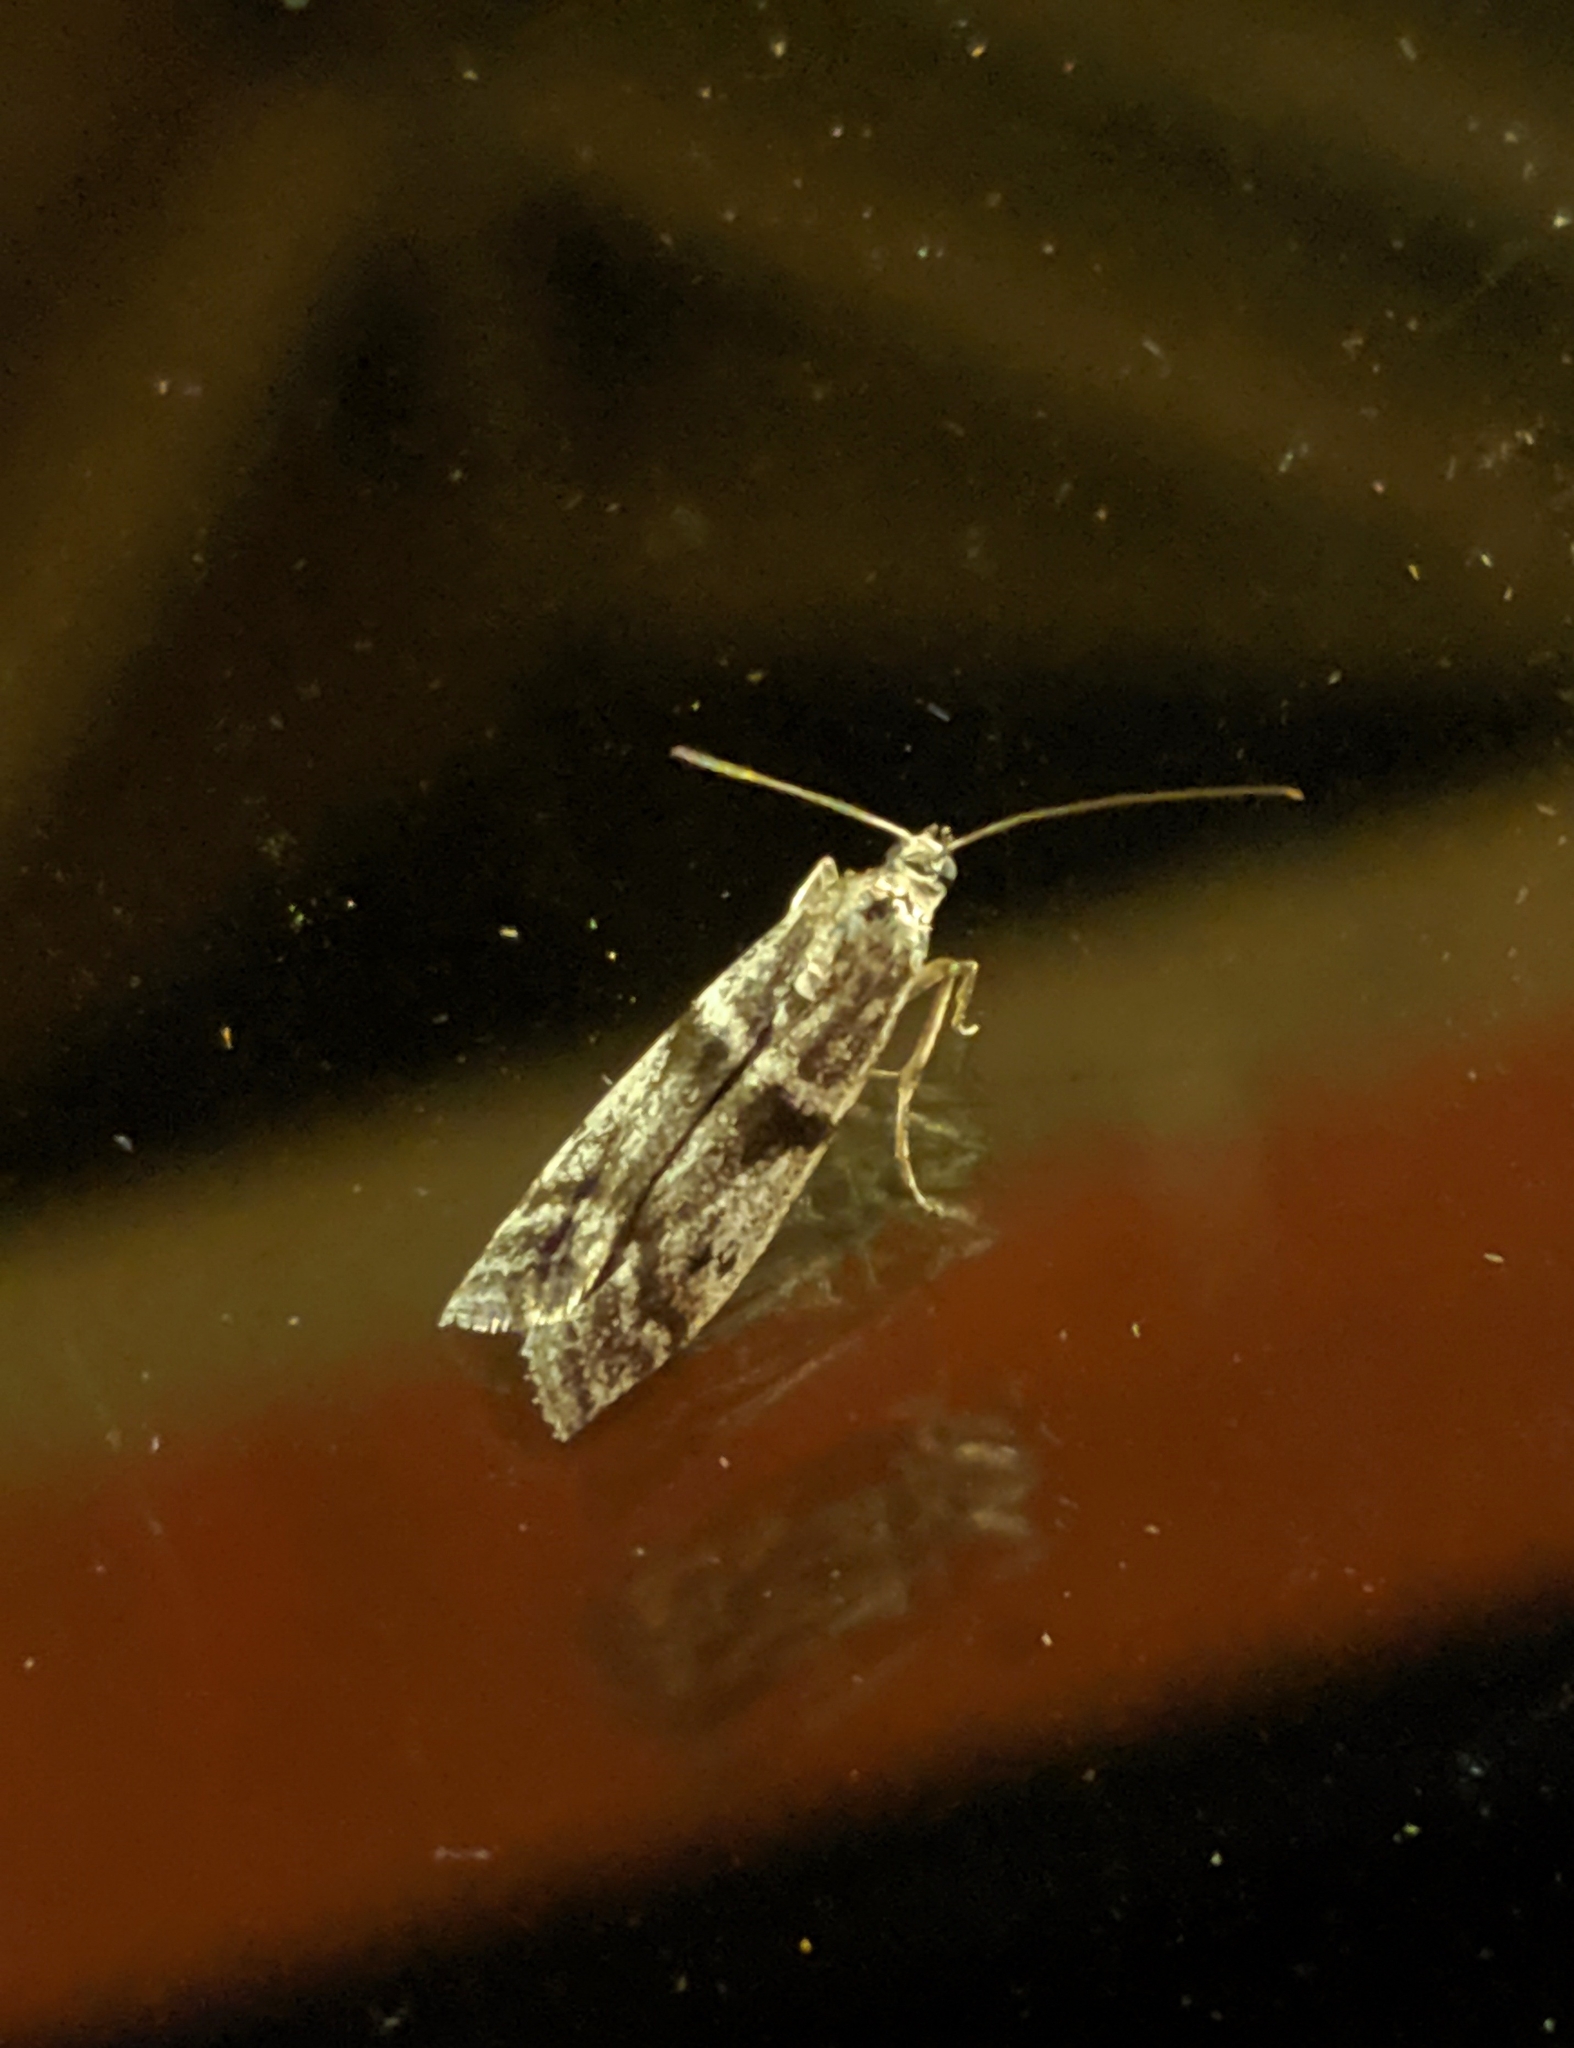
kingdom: Animalia
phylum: Arthropoda
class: Insecta
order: Lepidoptera
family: Crambidae
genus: Scoparia
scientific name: Scoparia biplagialis
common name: Double-striped scoparia moth
